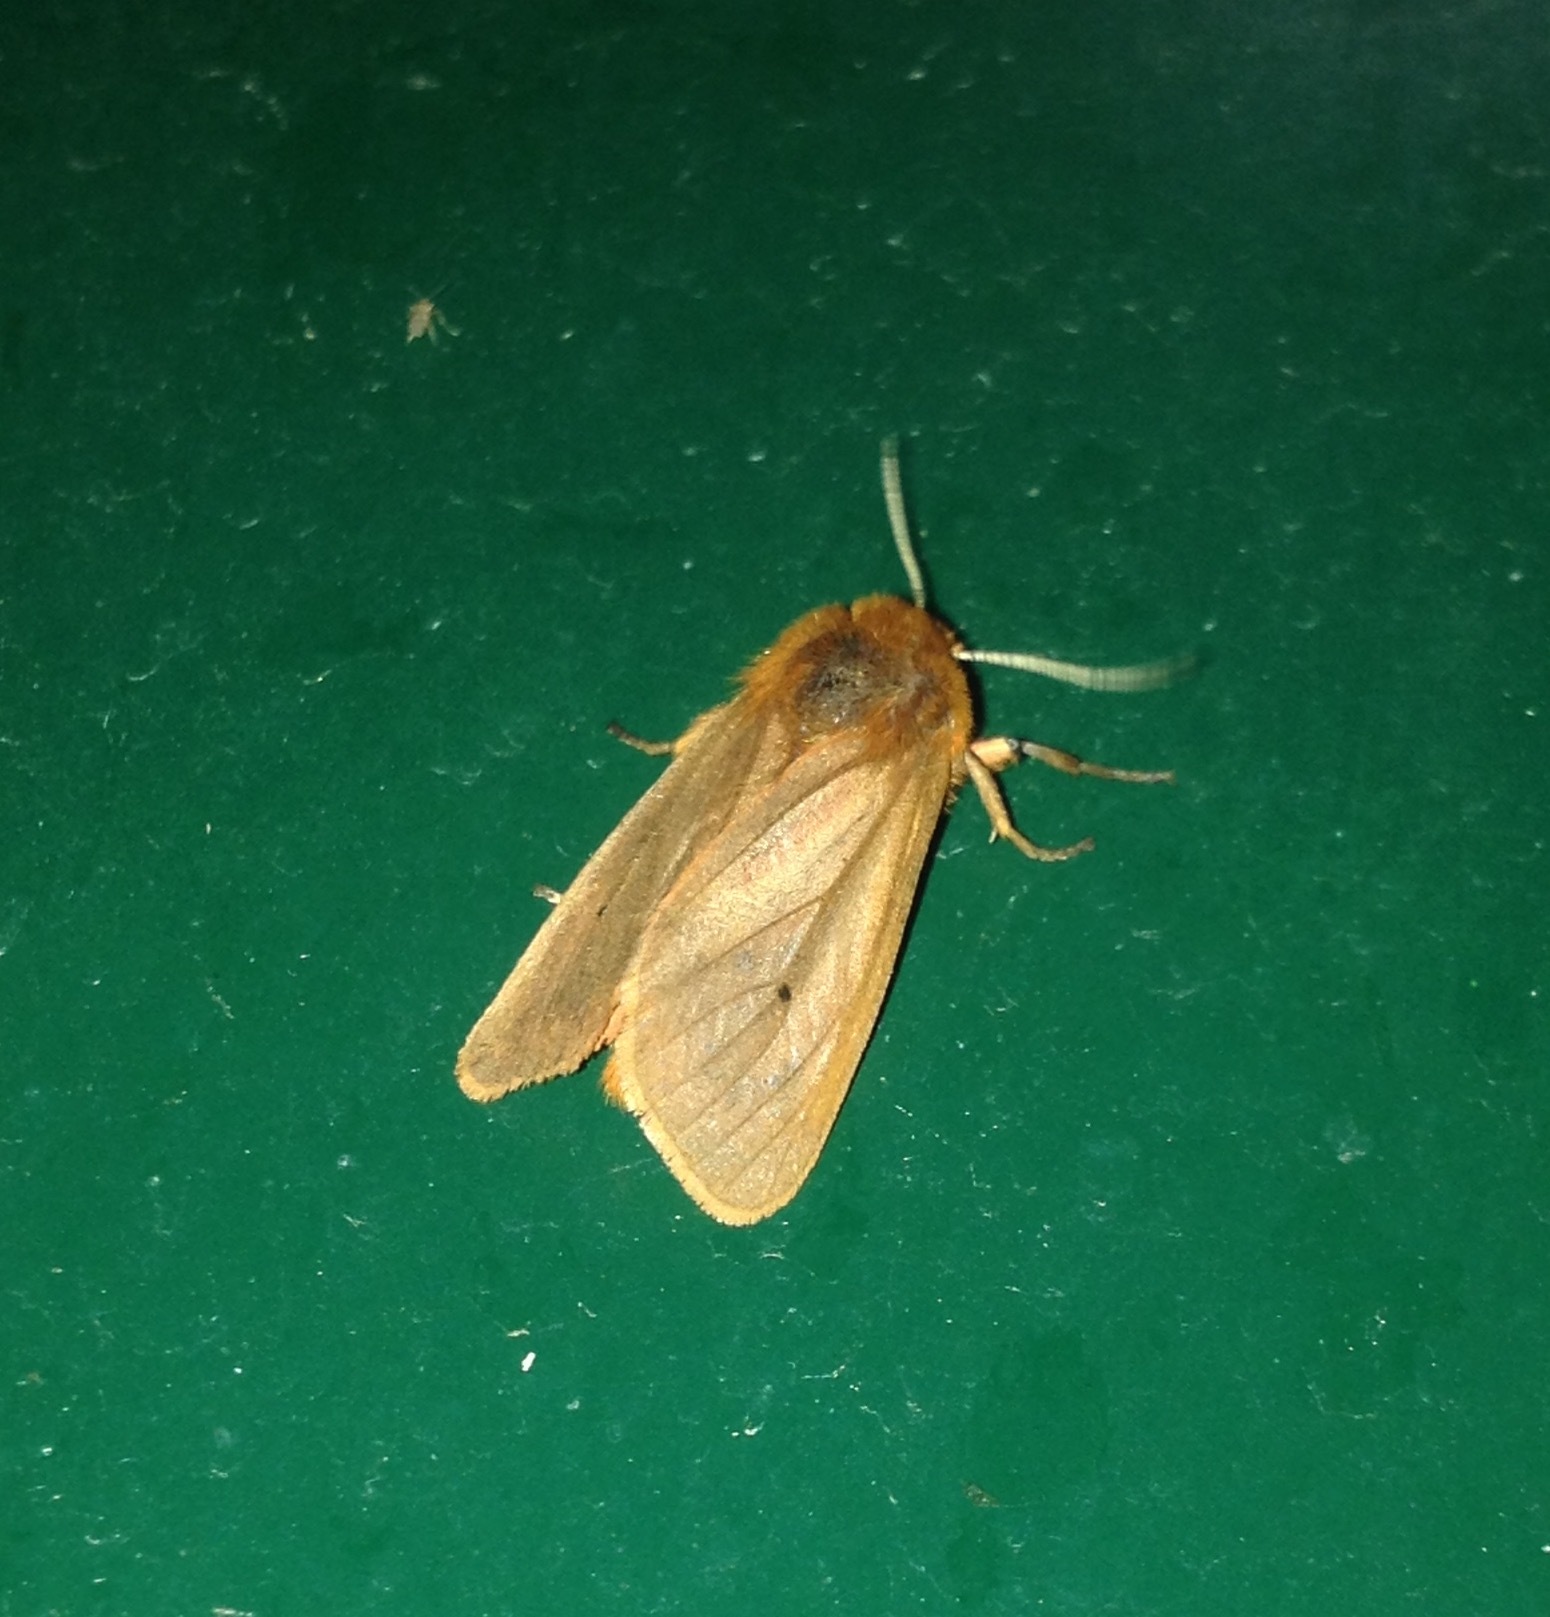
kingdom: Animalia
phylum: Arthropoda
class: Insecta
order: Lepidoptera
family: Erebidae
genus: Phragmatobia
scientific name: Phragmatobia fuliginosa
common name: Ruby tiger
